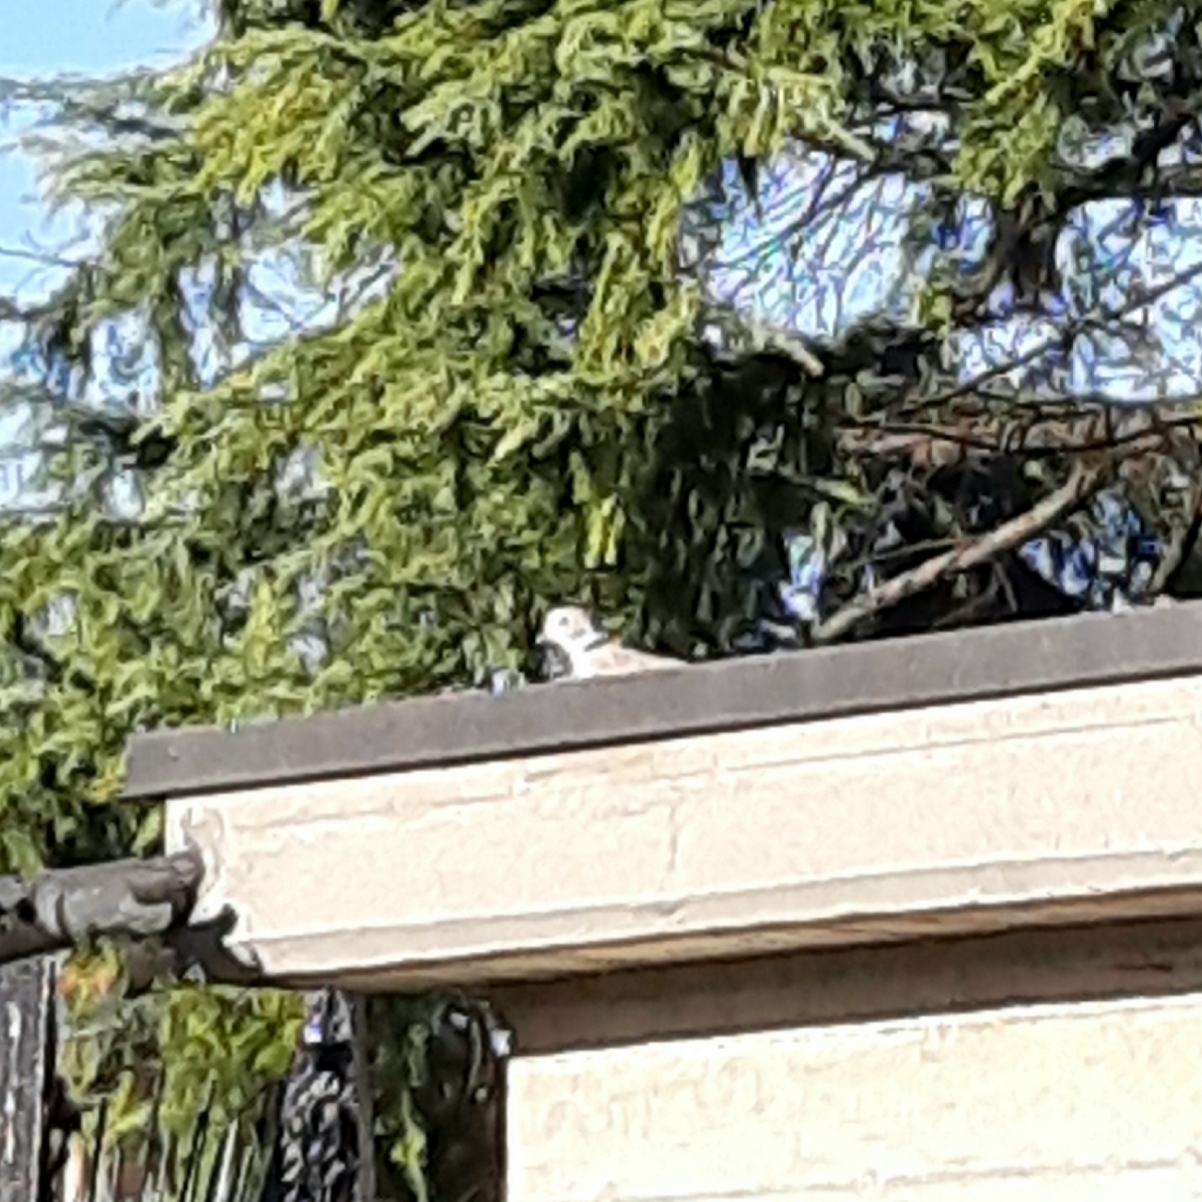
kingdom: Animalia
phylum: Chordata
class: Aves
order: Columbiformes
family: Columbidae
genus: Streptopelia
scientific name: Streptopelia decaocto
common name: Eurasian collared dove
